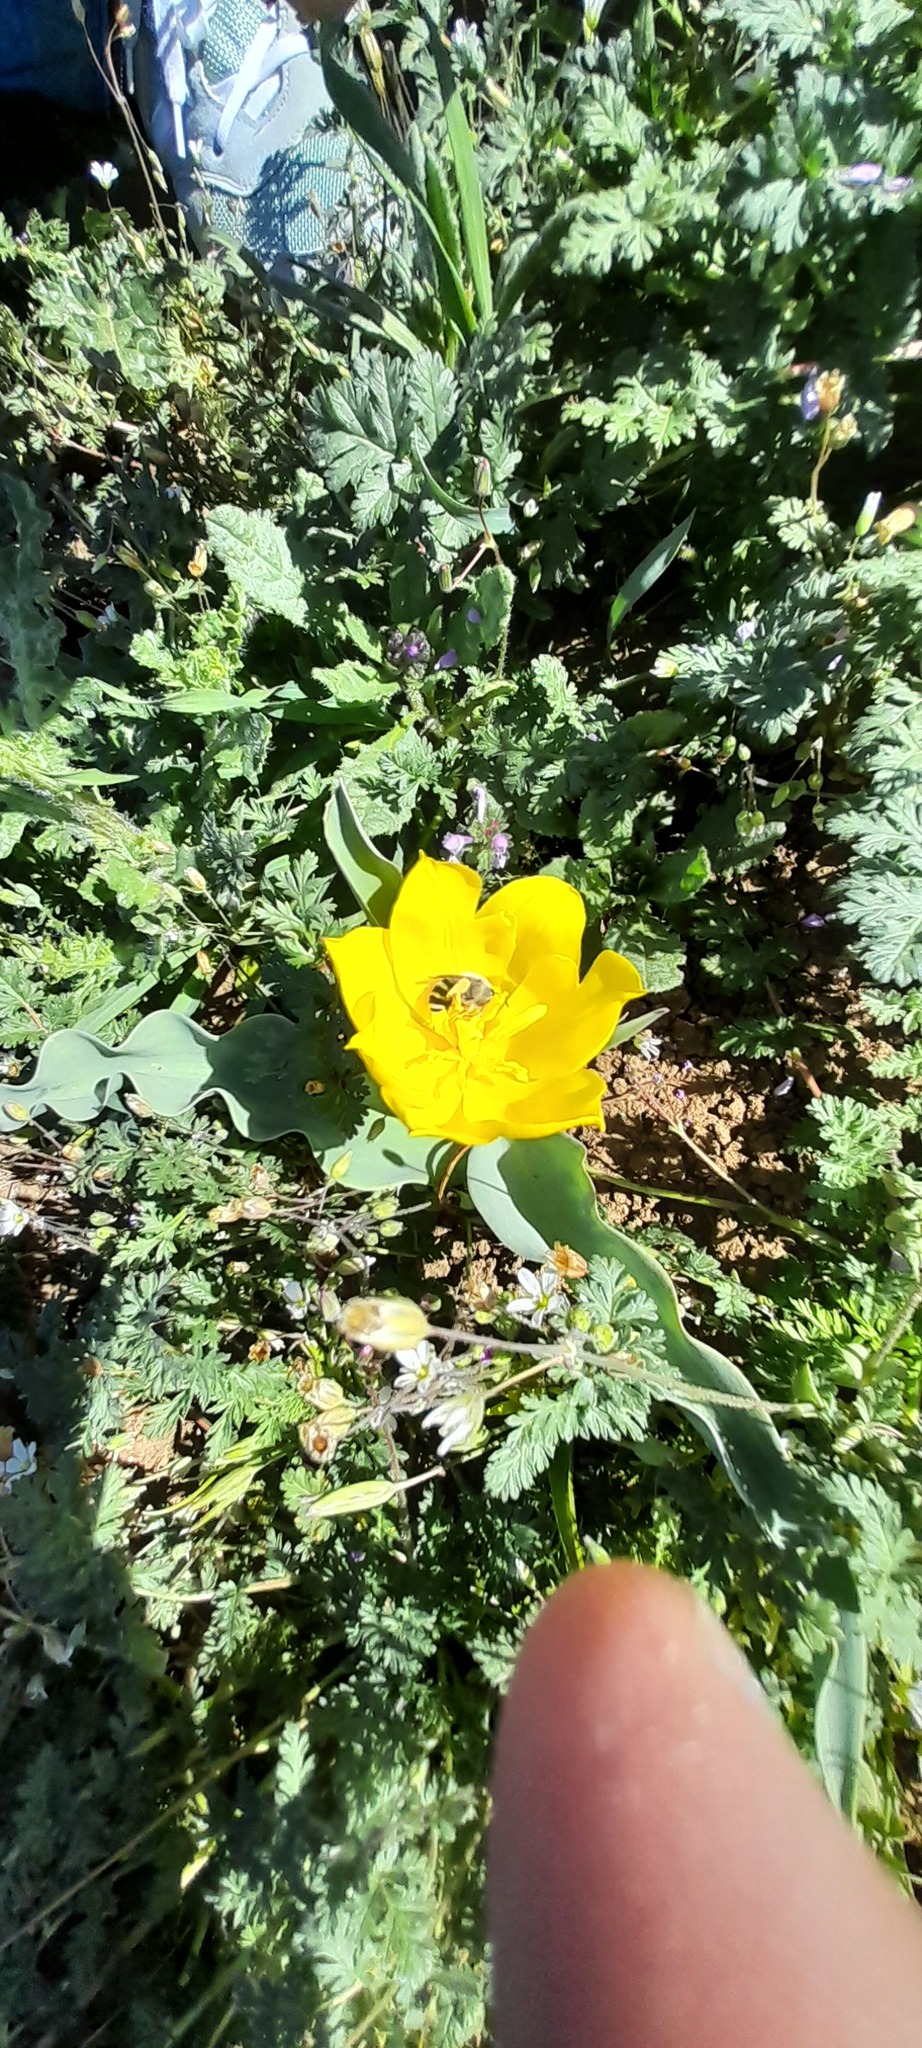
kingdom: Plantae
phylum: Tracheophyta
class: Liliopsida
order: Liliales
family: Liliaceae
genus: Tulipa
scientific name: Tulipa suaveolens
